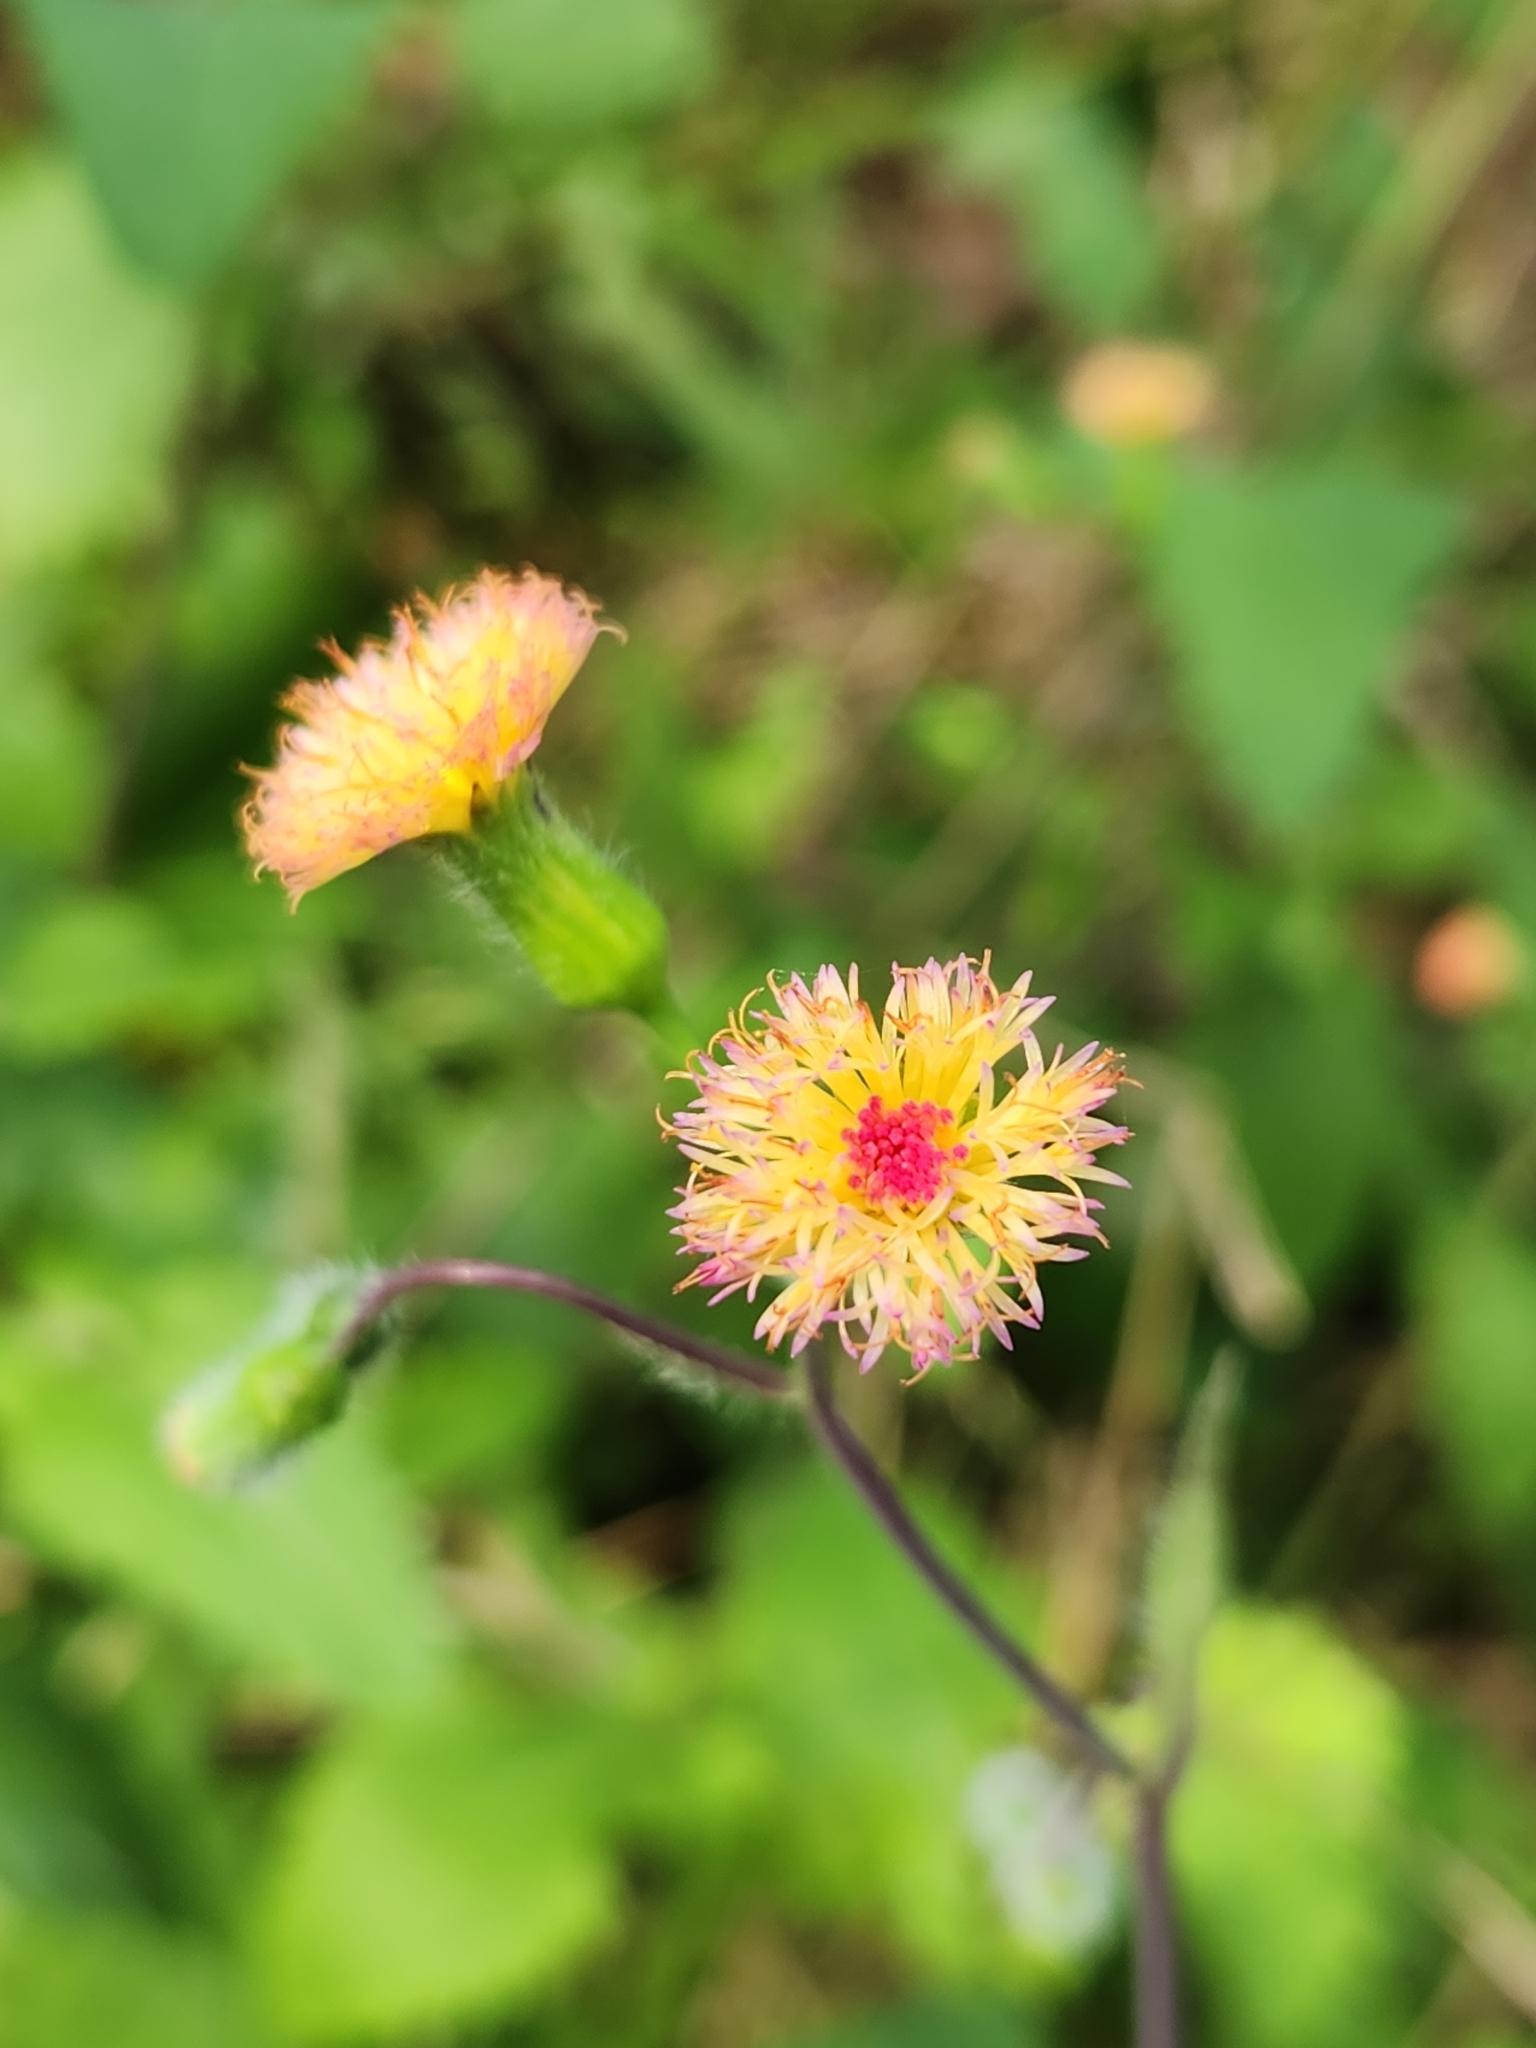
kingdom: Plantae
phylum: Tracheophyta
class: Magnoliopsida
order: Asterales
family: Asteraceae
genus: Emilia
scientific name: Emilia praetermissa
